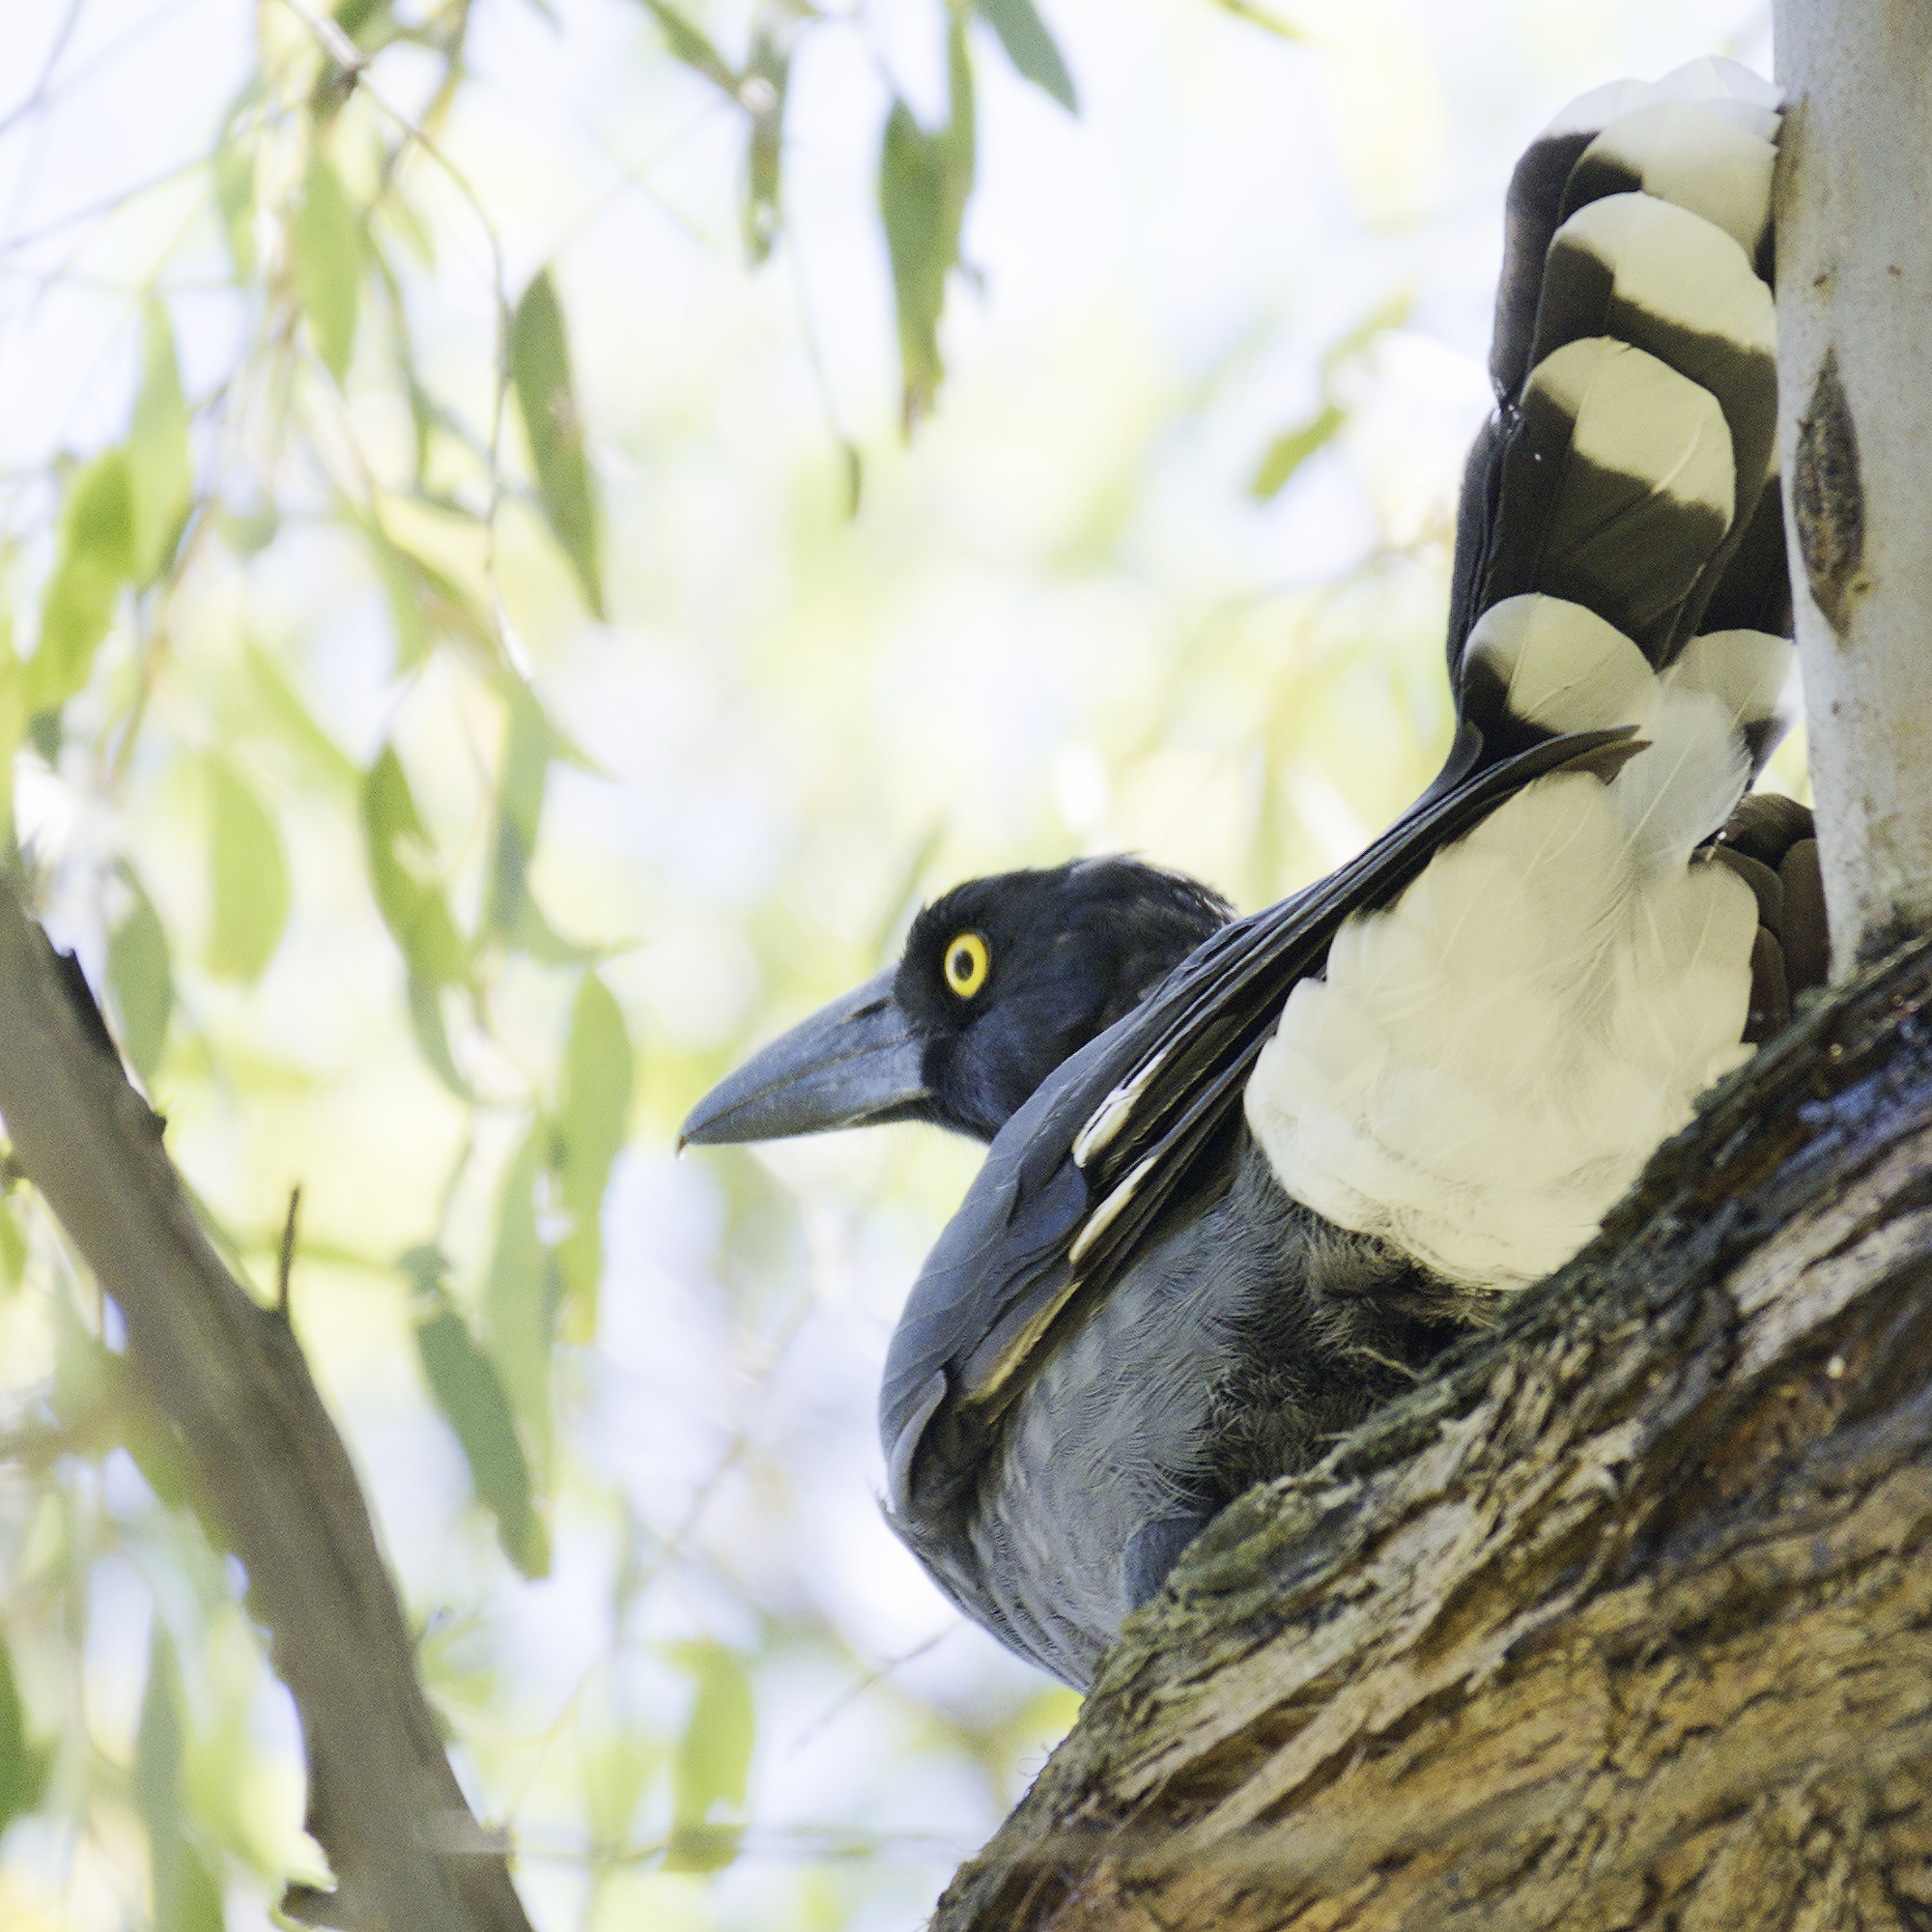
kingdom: Animalia
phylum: Chordata
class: Aves
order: Passeriformes
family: Cracticidae
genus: Strepera
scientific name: Strepera graculina
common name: Pied currawong
